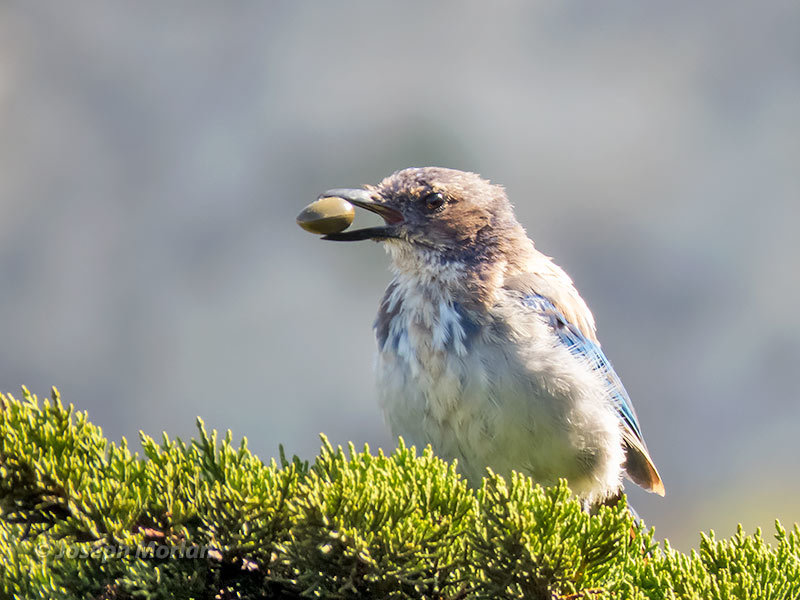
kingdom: Animalia
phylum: Chordata
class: Aves
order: Passeriformes
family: Corvidae
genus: Aphelocoma
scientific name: Aphelocoma californica
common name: California scrub-jay
